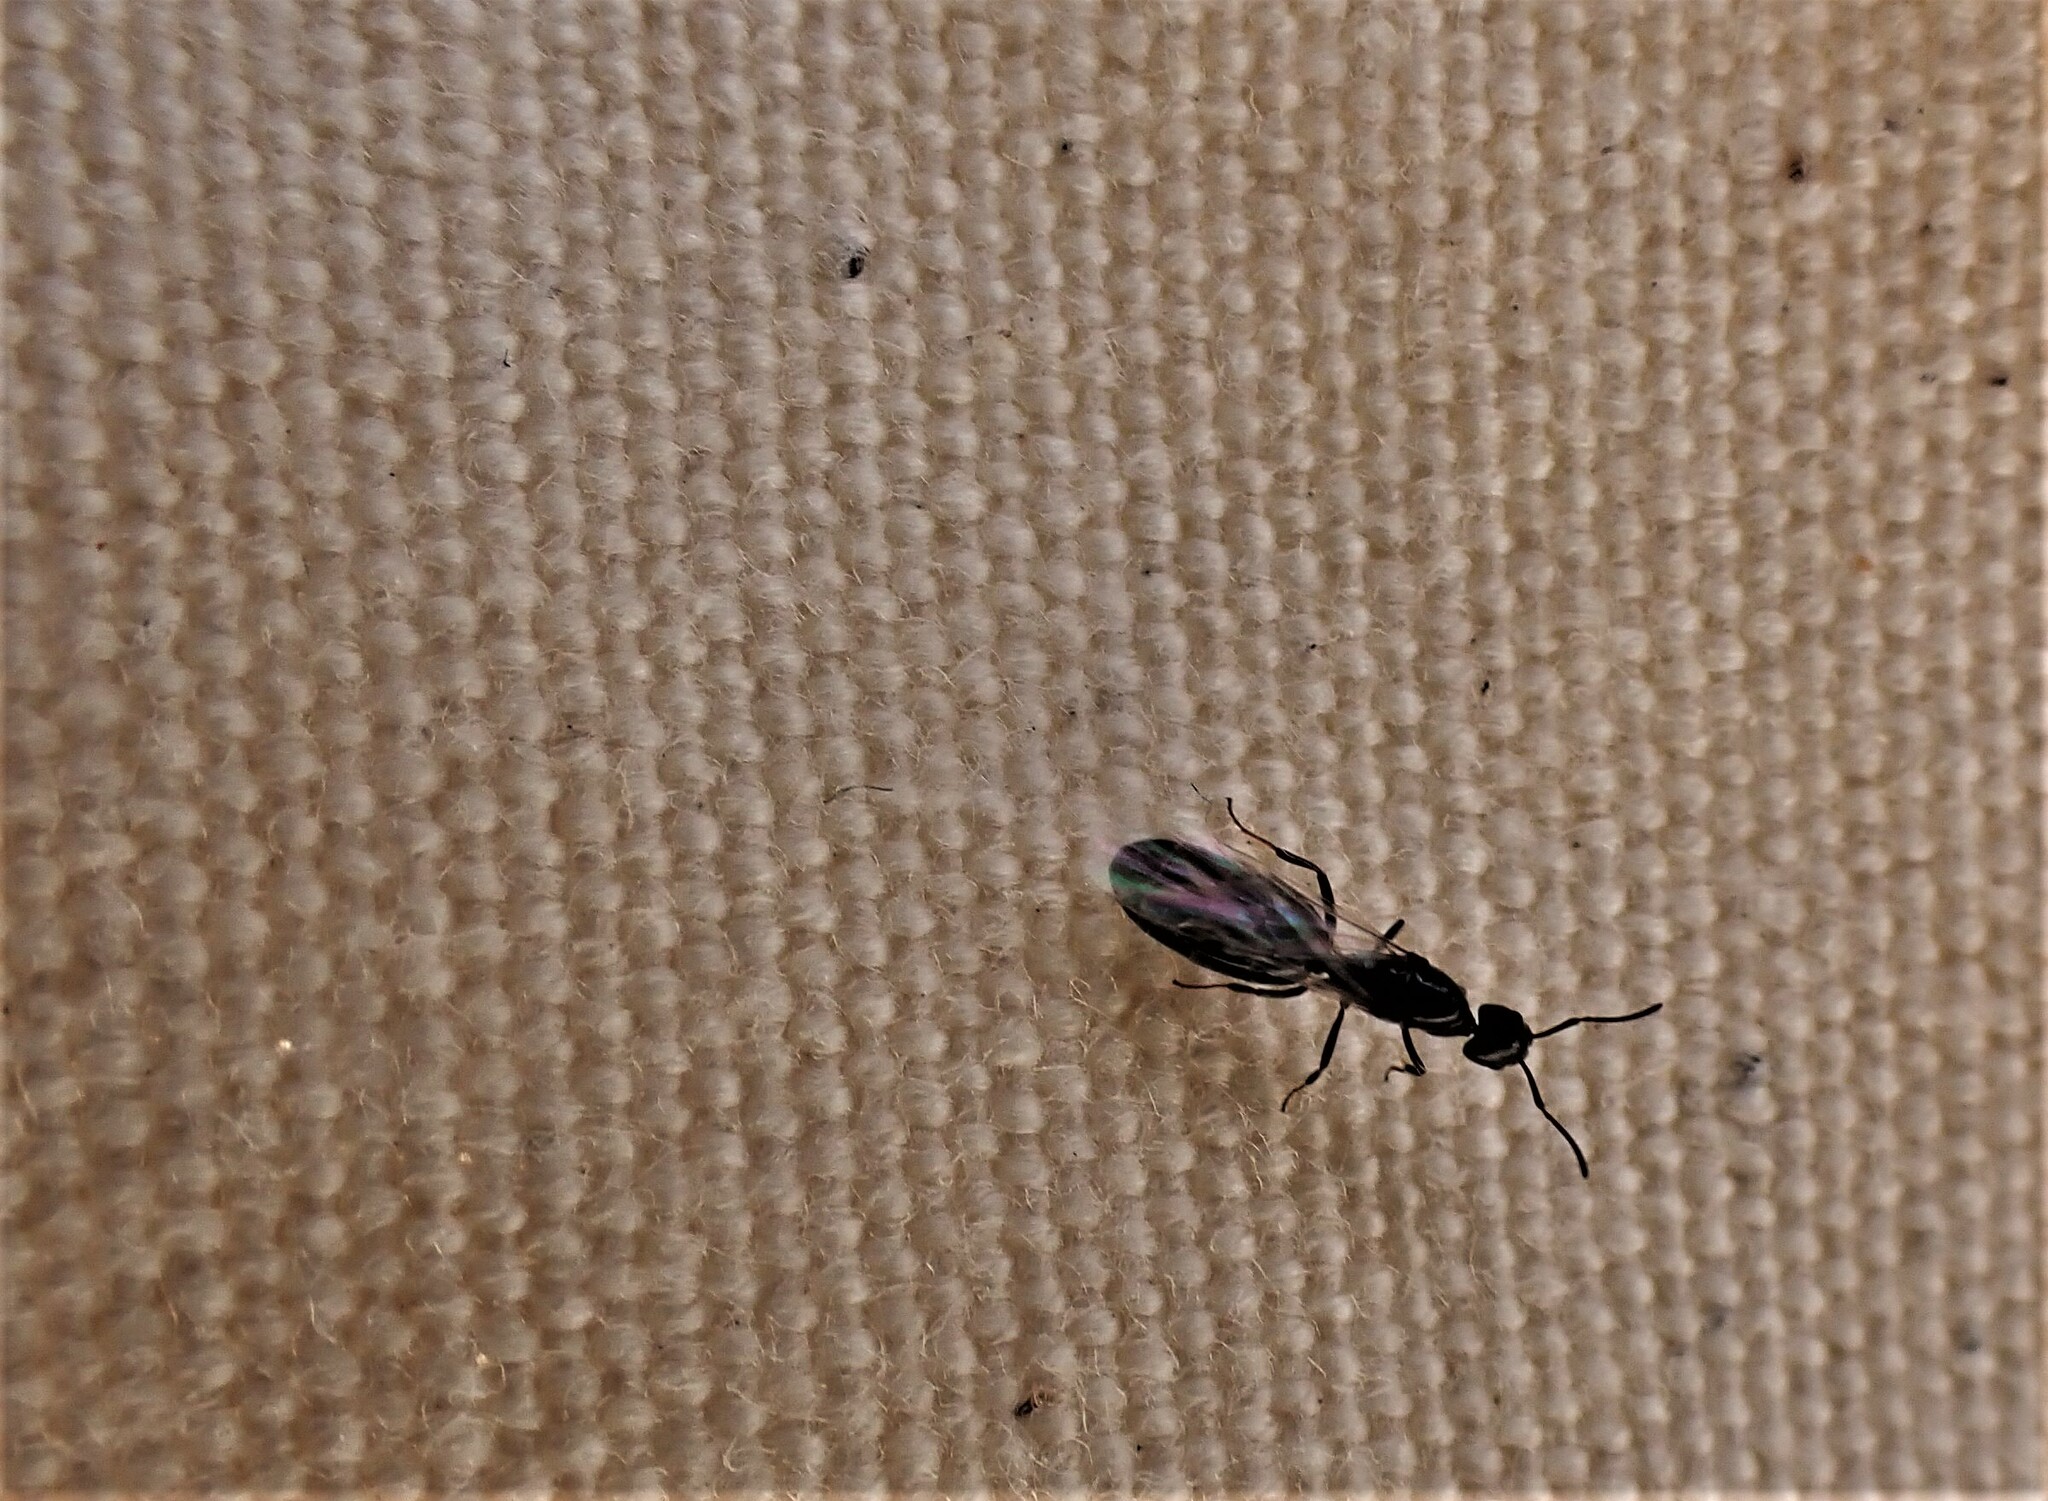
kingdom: Animalia
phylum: Arthropoda
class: Insecta
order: Hymenoptera
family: Formicidae
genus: Ochetellus
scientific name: Ochetellus glaber
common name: Ant
